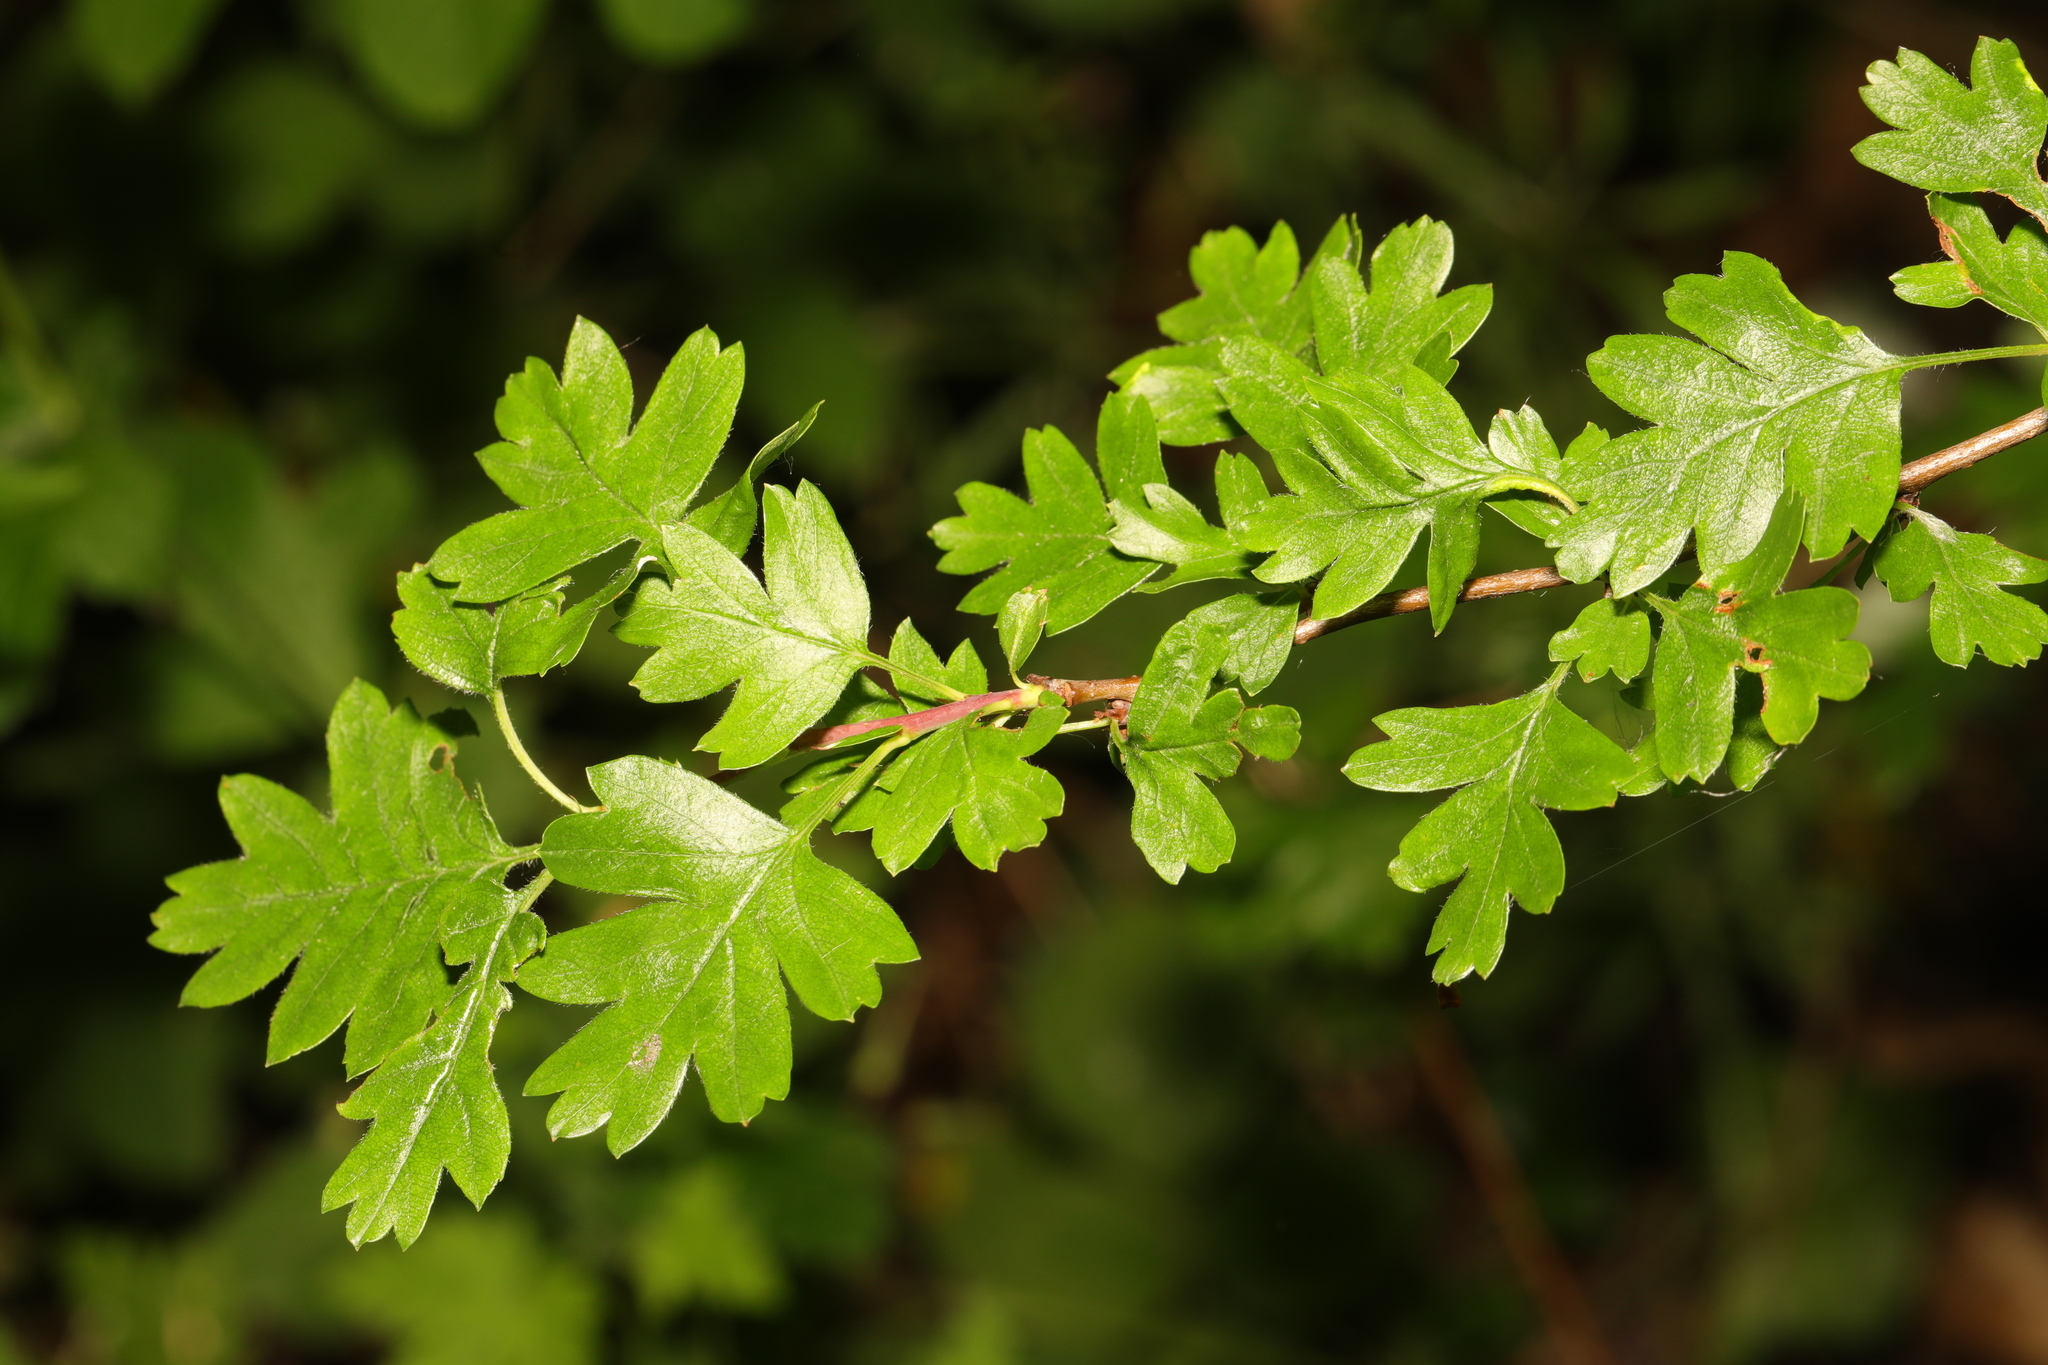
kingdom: Plantae
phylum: Tracheophyta
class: Magnoliopsida
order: Rosales
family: Rosaceae
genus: Crataegus
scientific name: Crataegus monogyna
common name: Hawthorn
